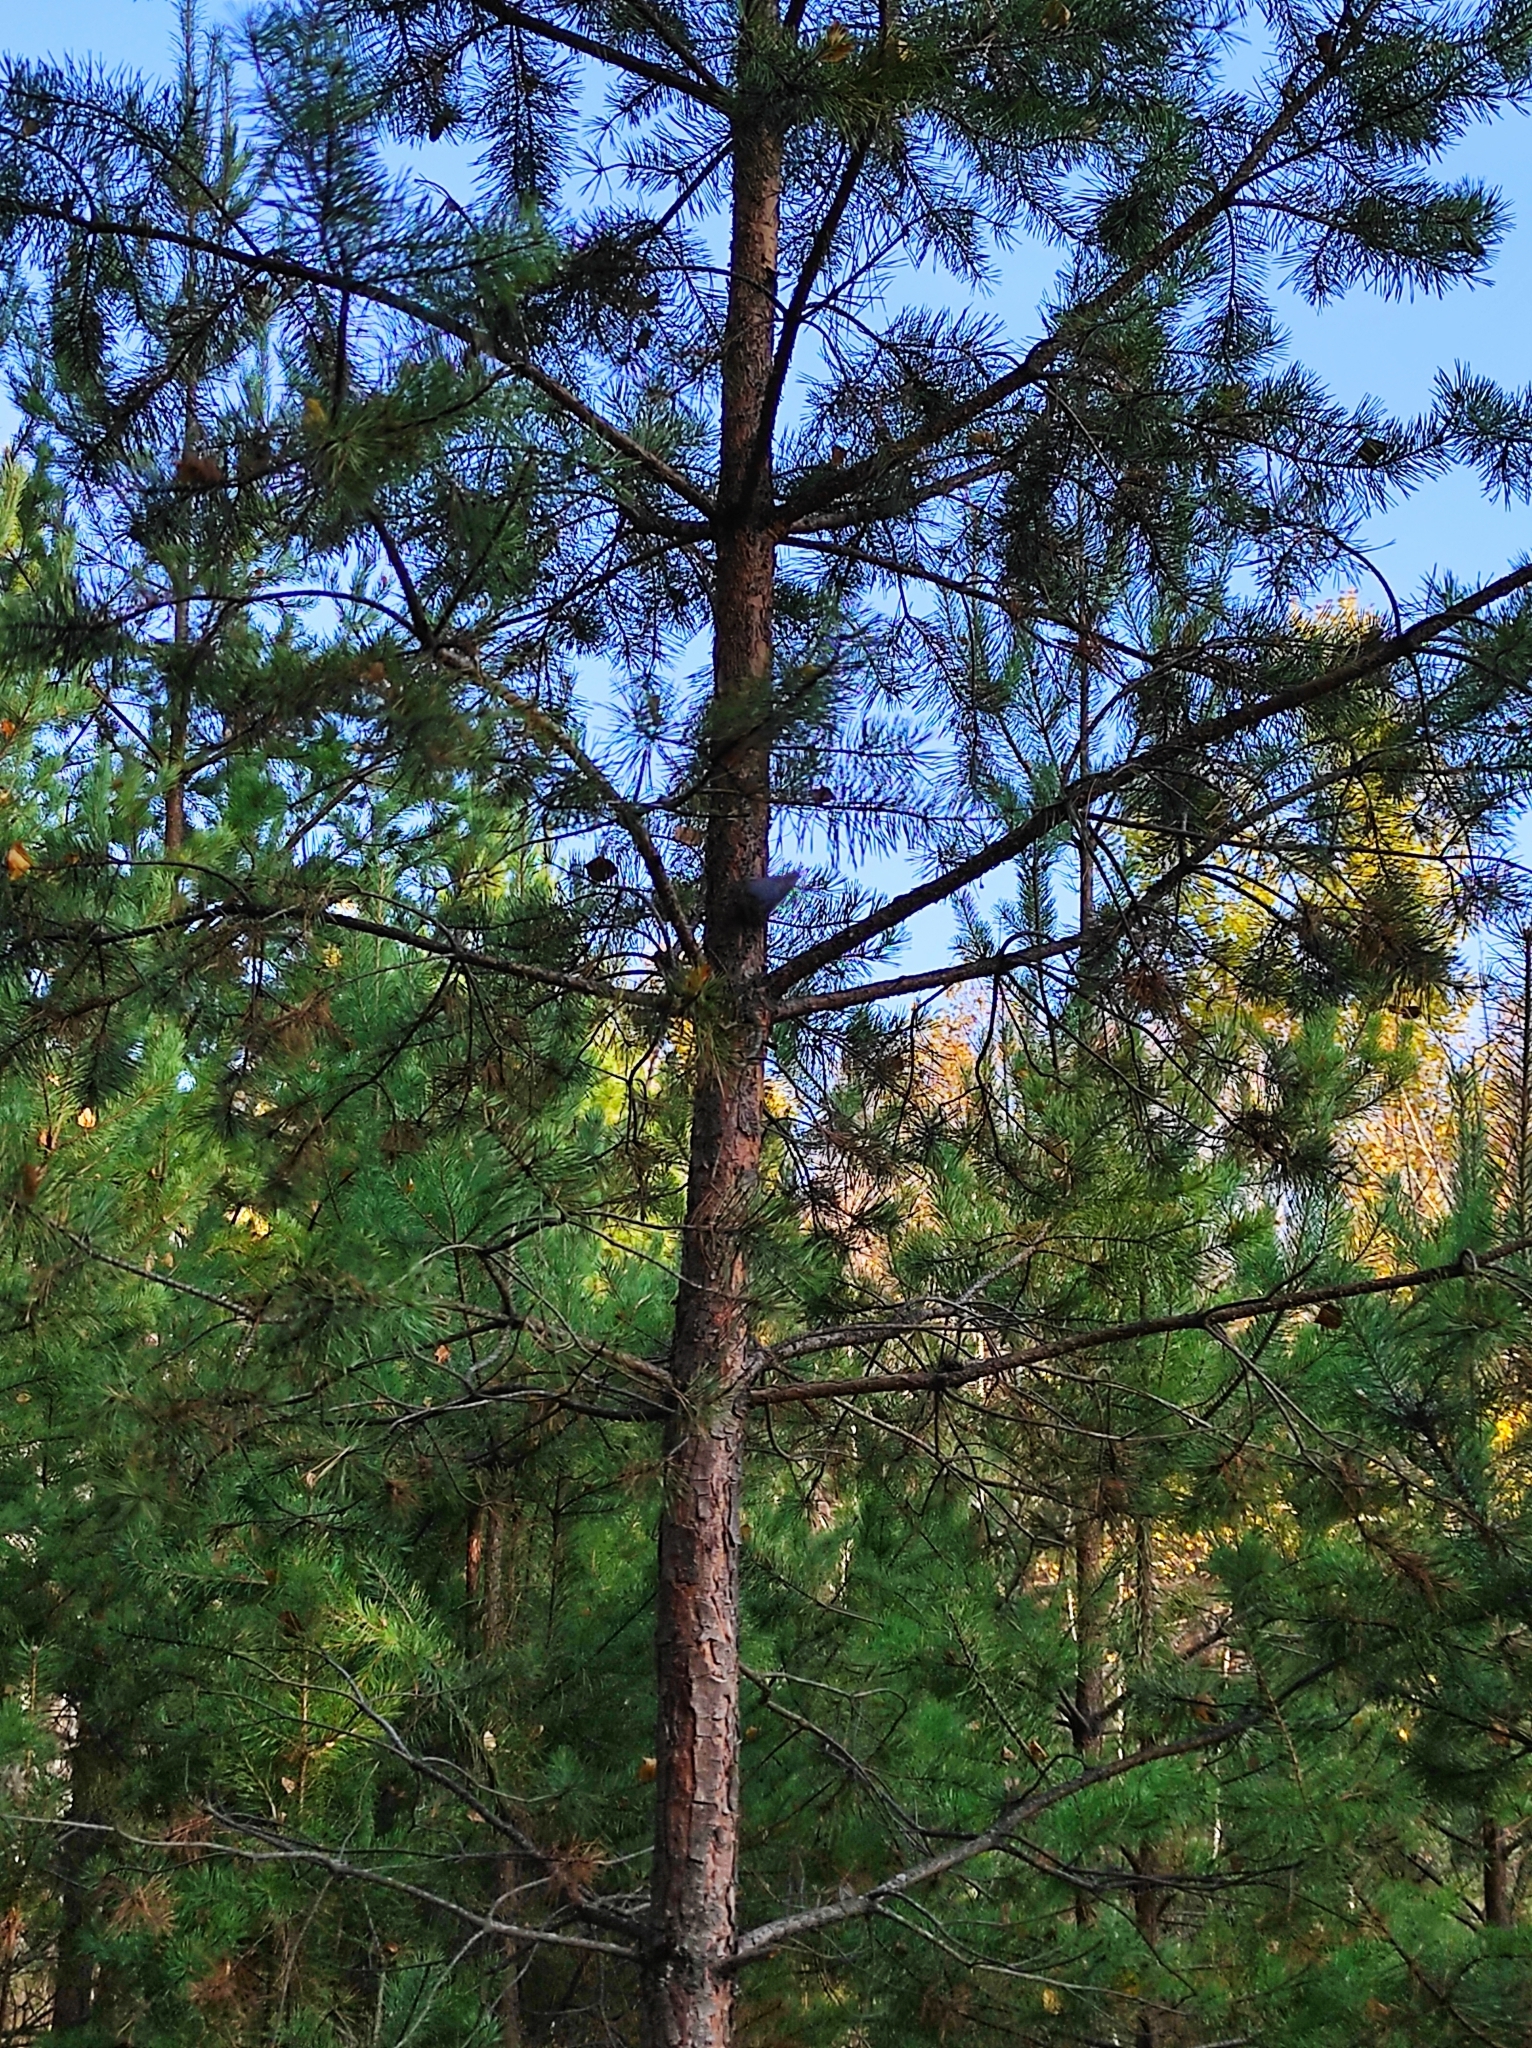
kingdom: Animalia
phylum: Chordata
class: Aves
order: Passeriformes
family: Sittidae
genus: Sitta
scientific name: Sitta europaea
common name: Eurasian nuthatch
